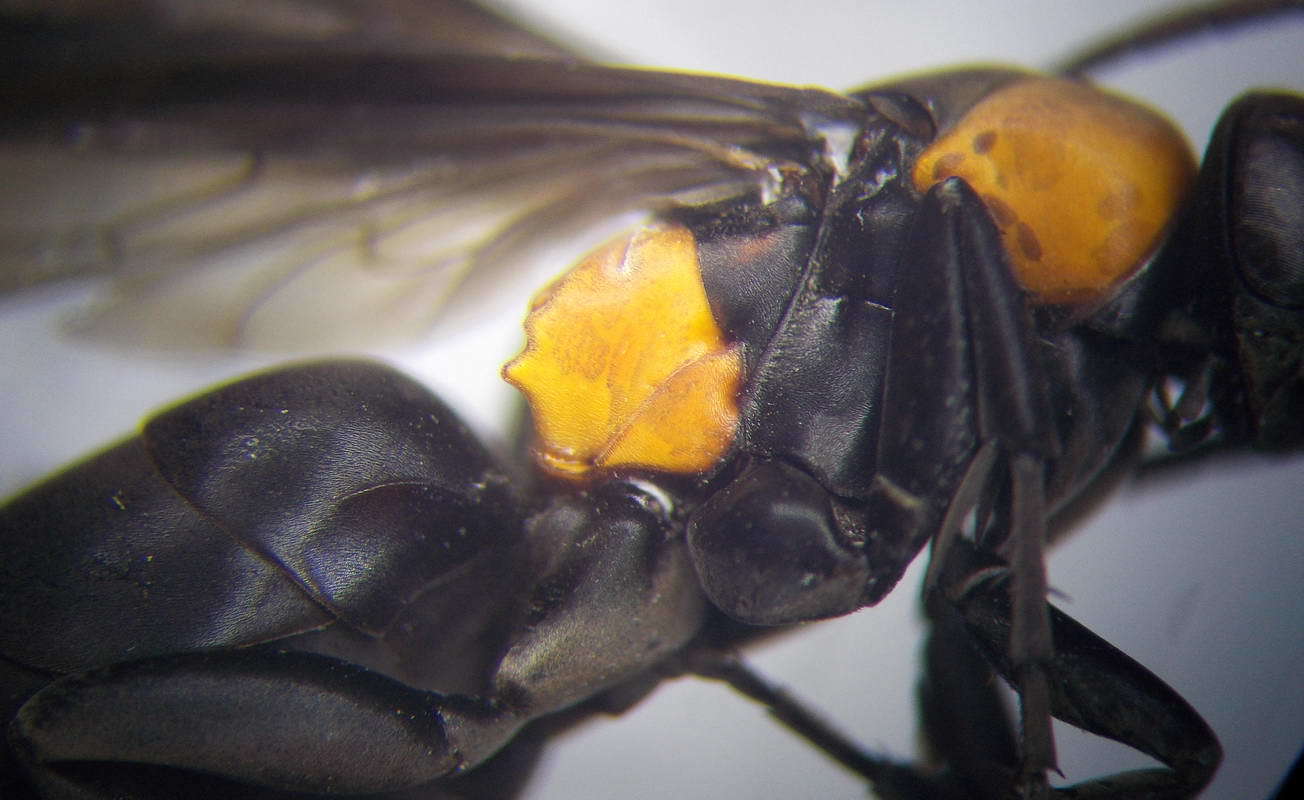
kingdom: Animalia
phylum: Arthropoda
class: Insecta
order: Hymenoptera
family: Pompilidae
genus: Eoferreola
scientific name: Eoferreola manticata
